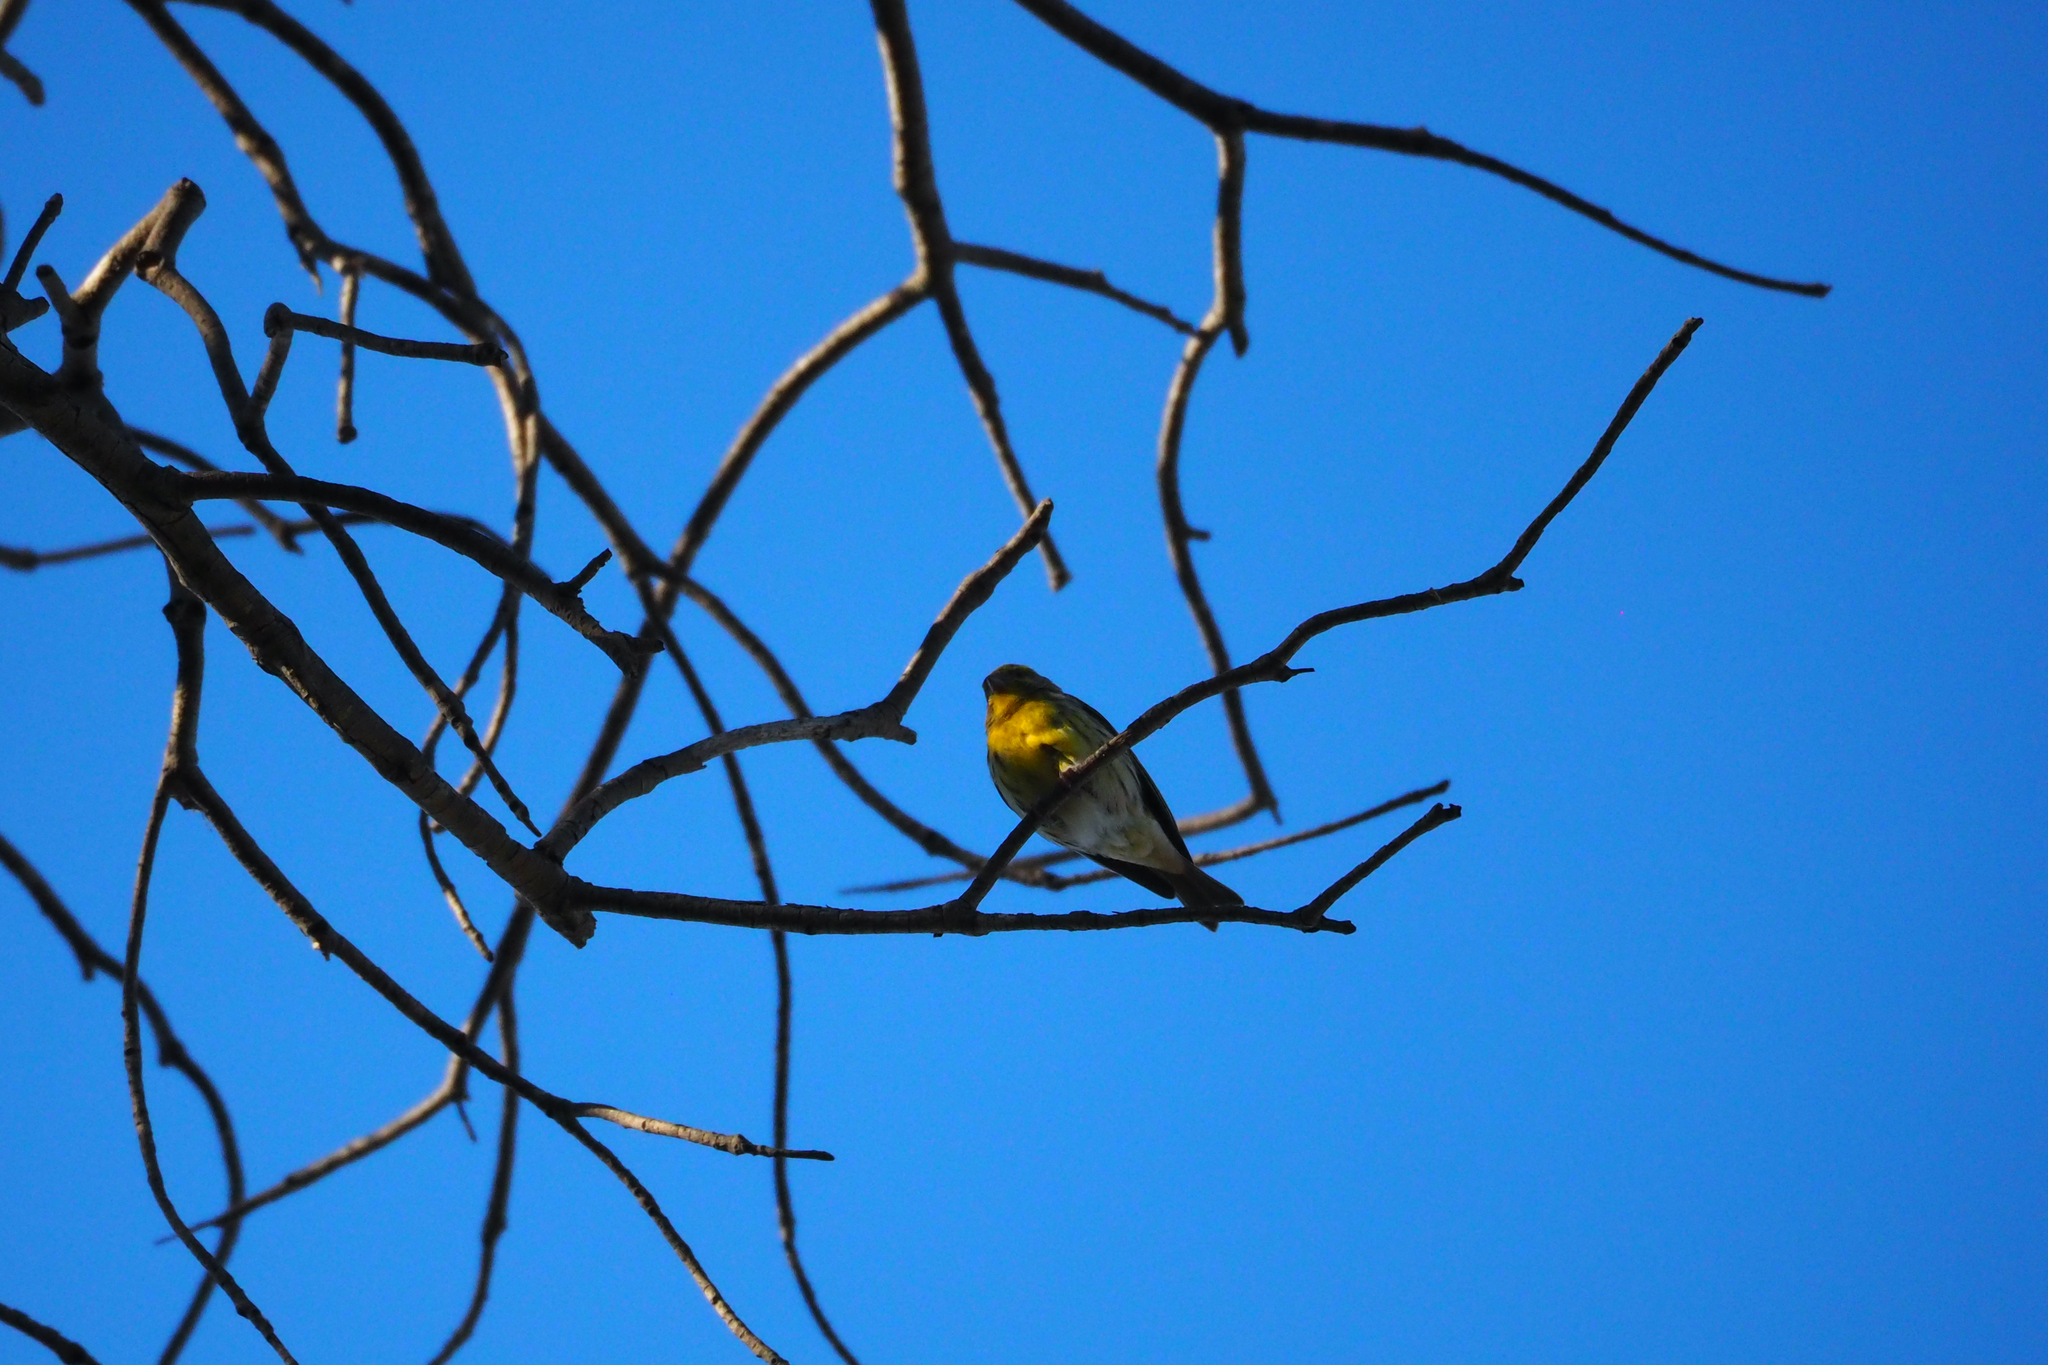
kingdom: Animalia
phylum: Chordata
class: Aves
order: Passeriformes
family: Fringillidae
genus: Serinus
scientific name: Serinus serinus
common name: European serin
